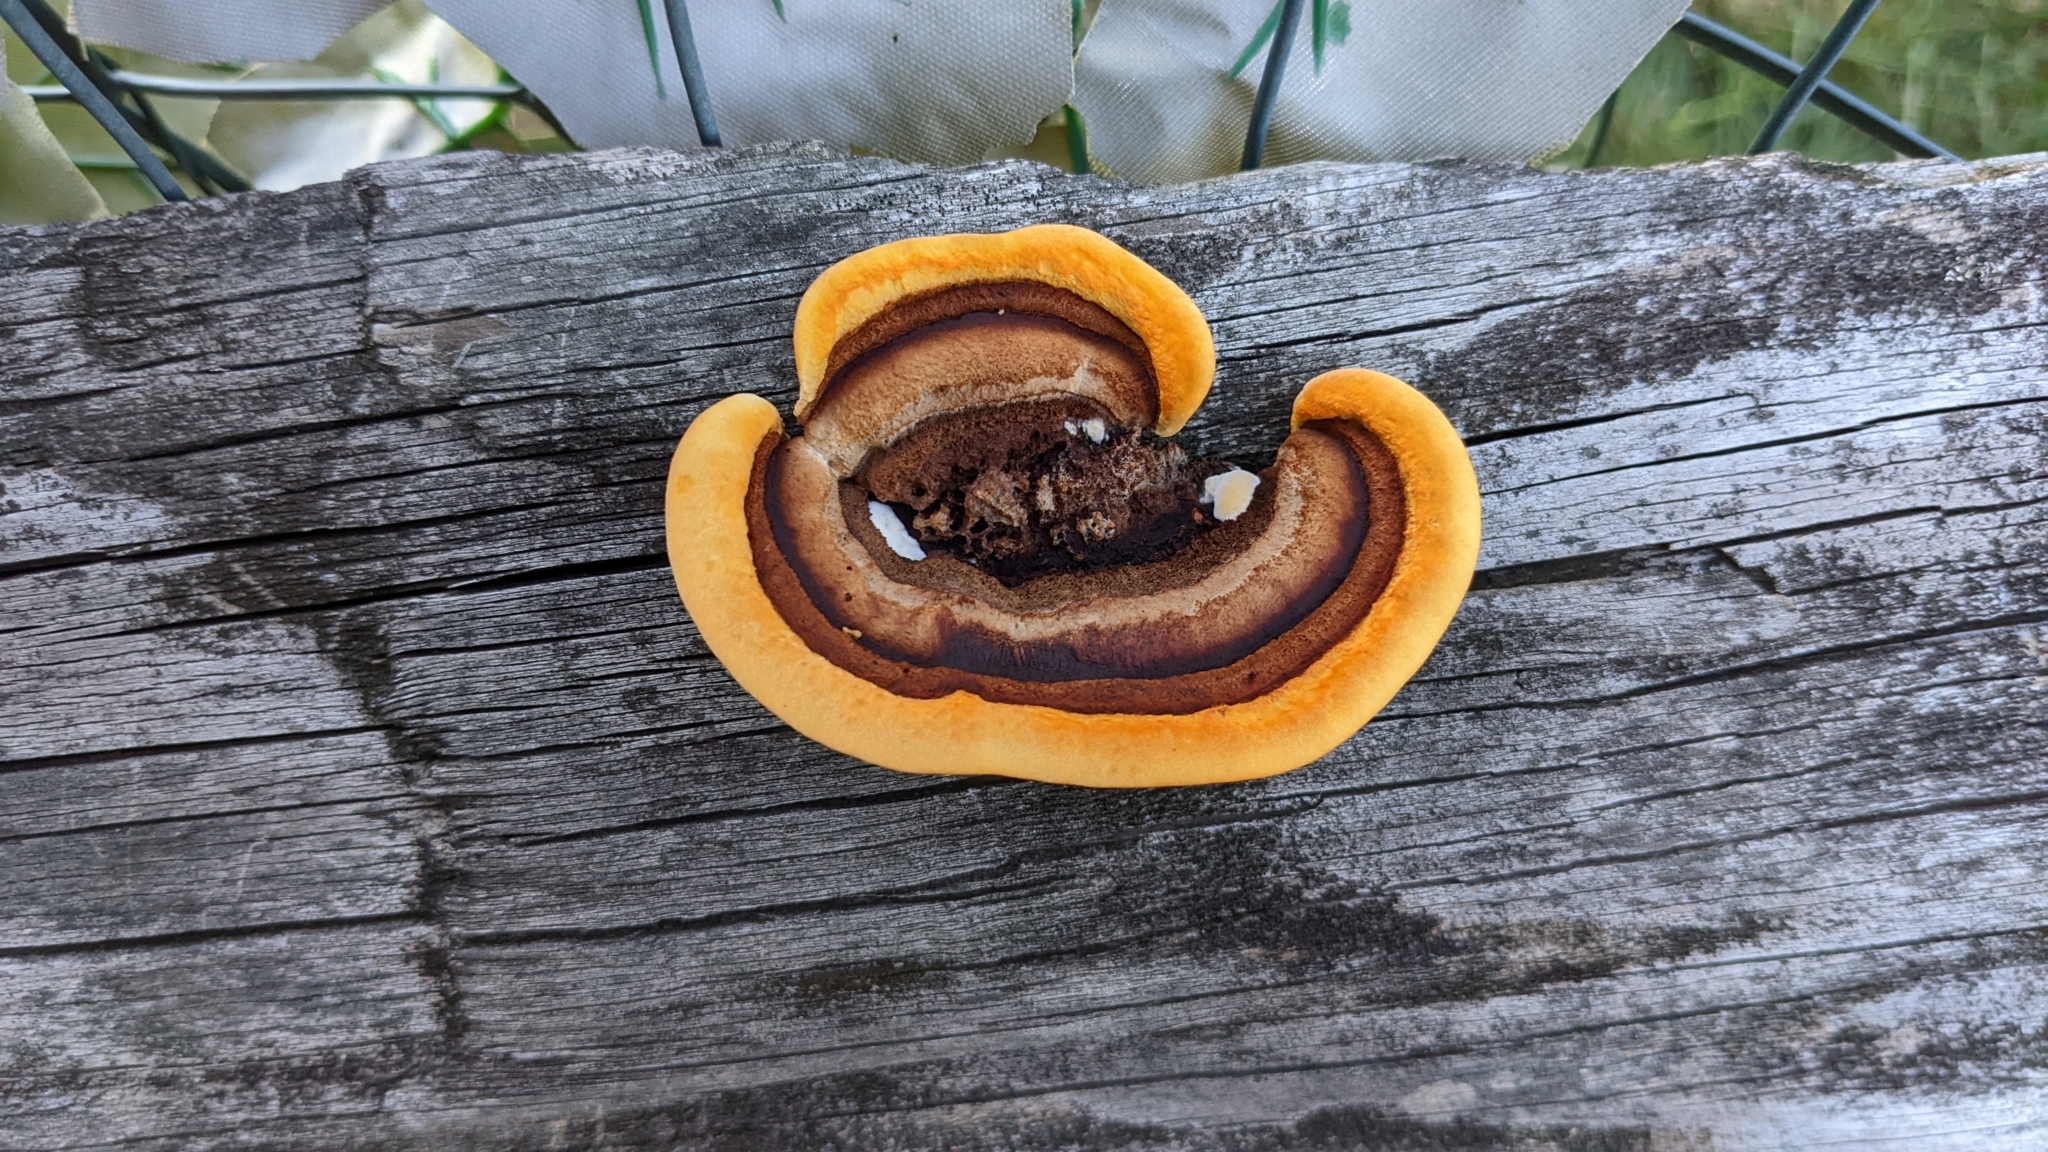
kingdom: Fungi
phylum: Basidiomycota
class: Agaricomycetes
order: Gloeophyllales
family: Gloeophyllaceae
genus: Gloeophyllum
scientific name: Gloeophyllum sepiarium
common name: Conifer mazegill
